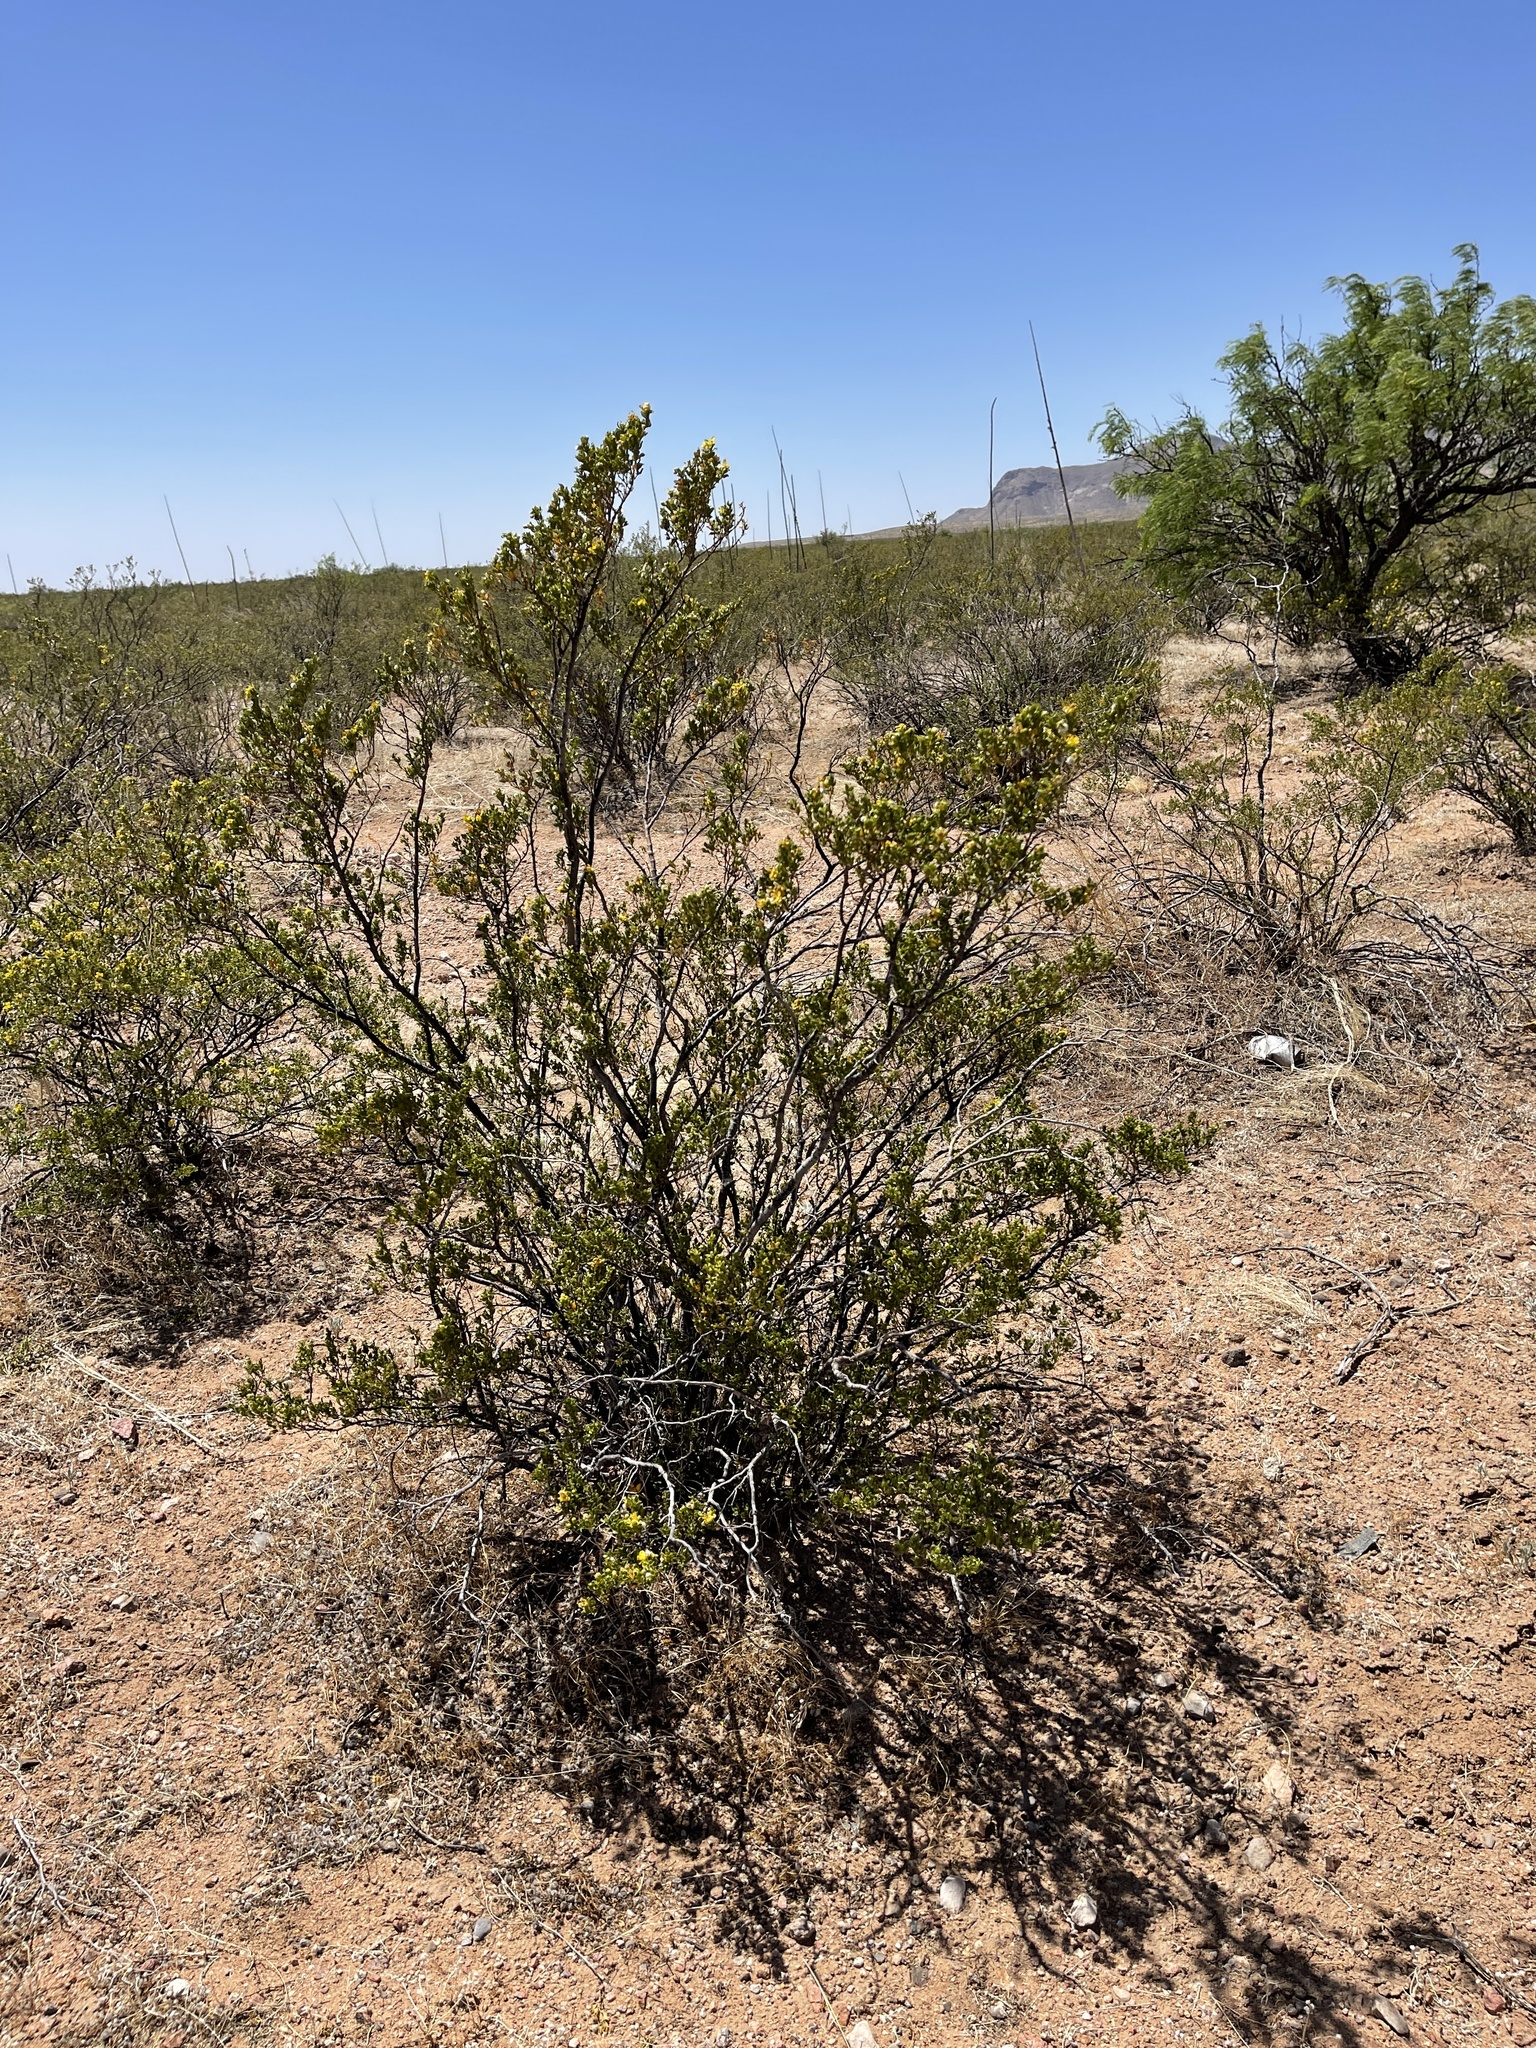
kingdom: Plantae
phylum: Tracheophyta
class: Magnoliopsida
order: Zygophyllales
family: Zygophyllaceae
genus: Larrea
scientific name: Larrea tridentata
